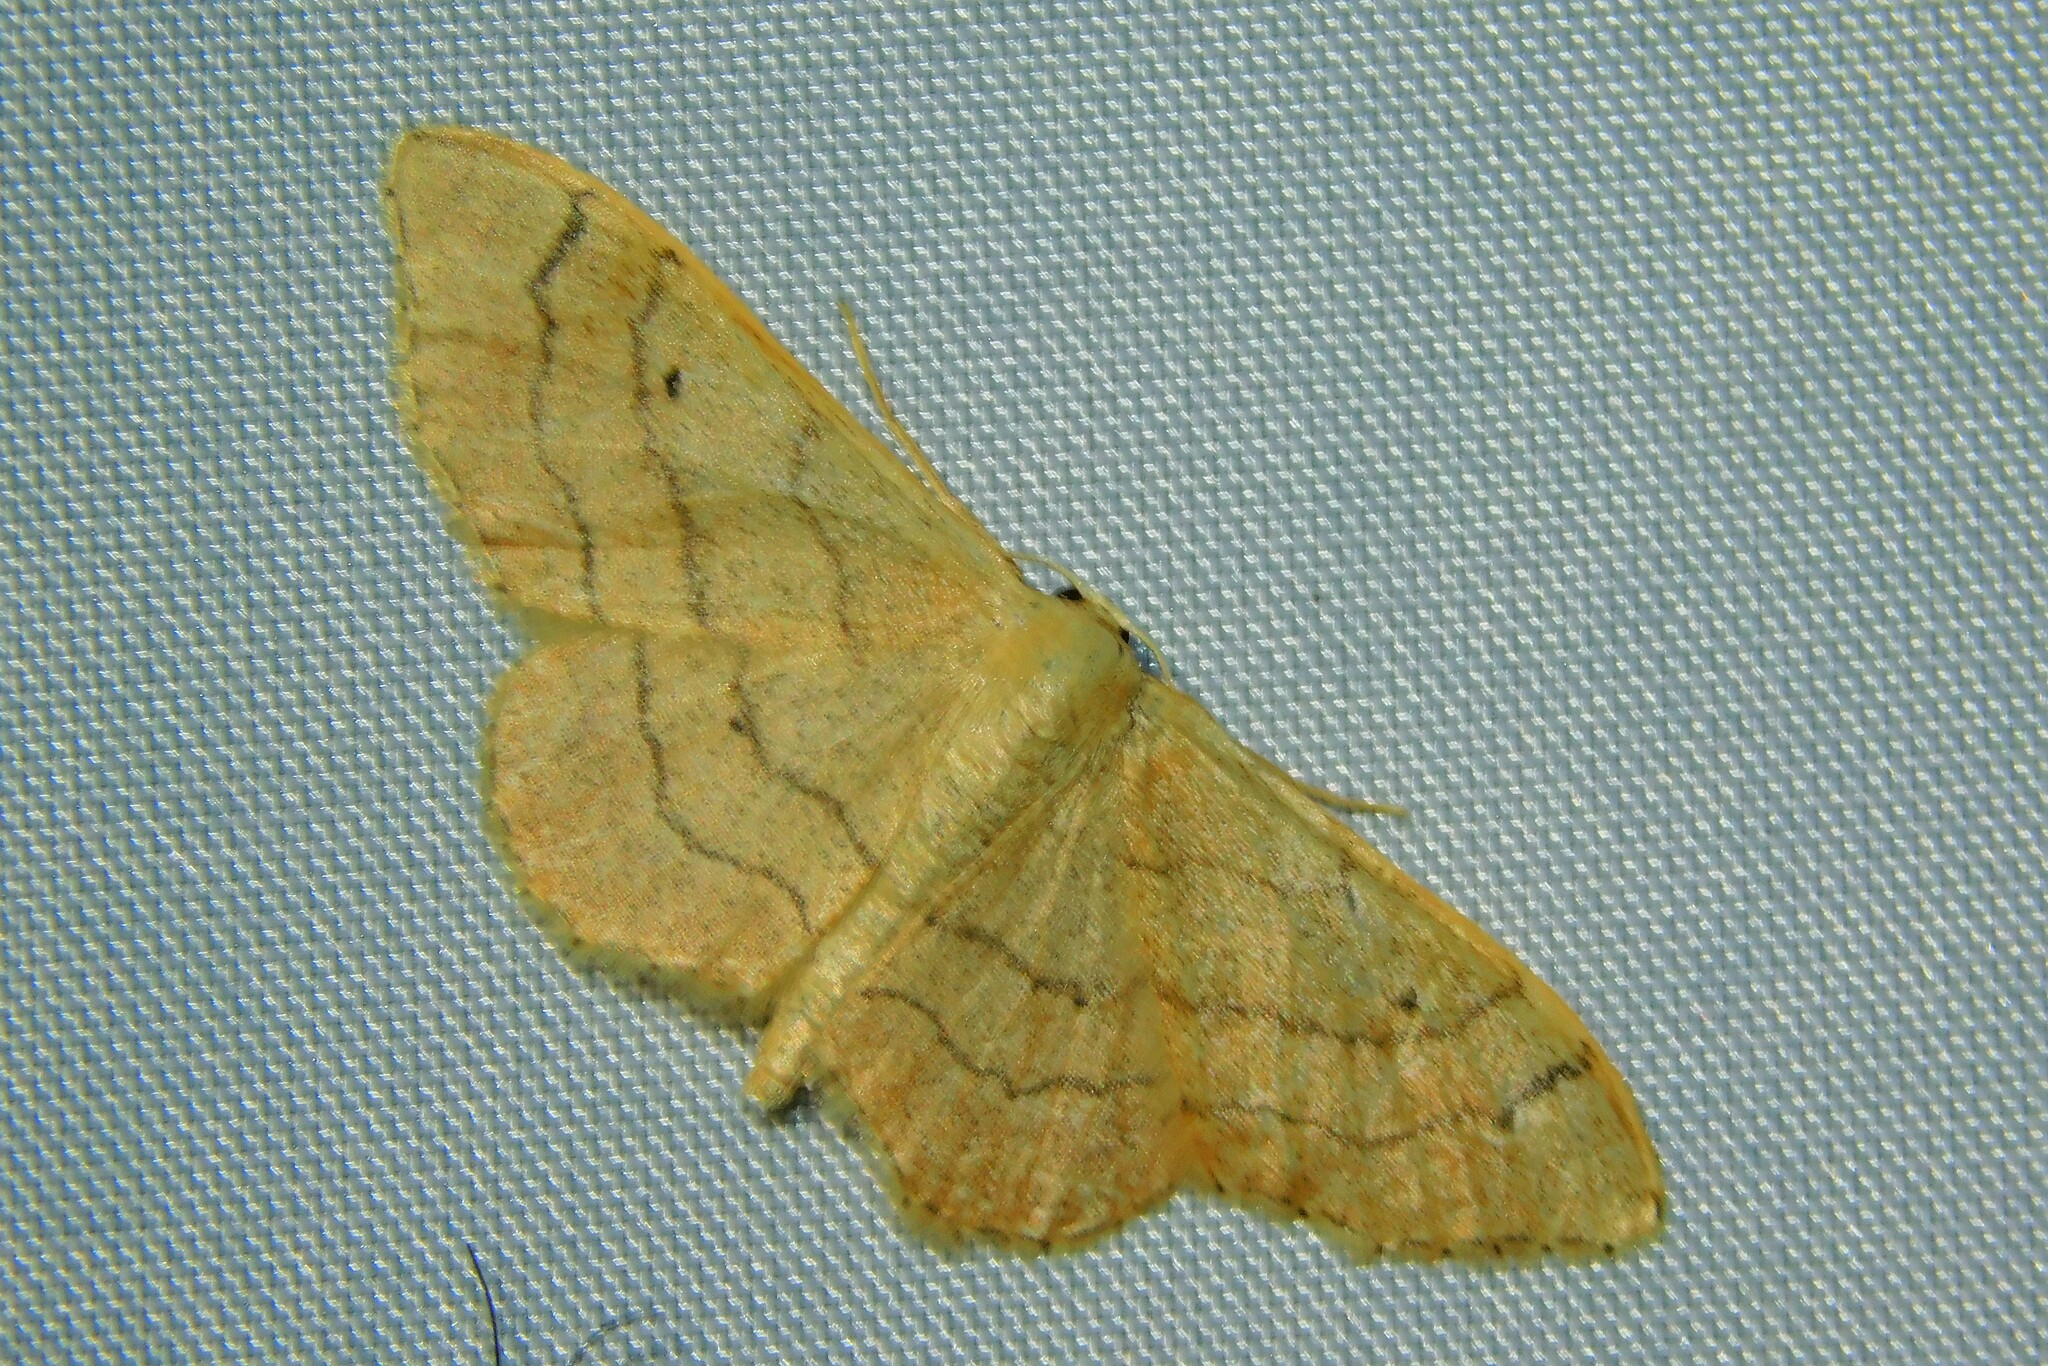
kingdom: Animalia
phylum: Arthropoda
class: Insecta
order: Lepidoptera
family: Geometridae
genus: Idaea
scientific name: Idaea aversata
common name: Riband wave
